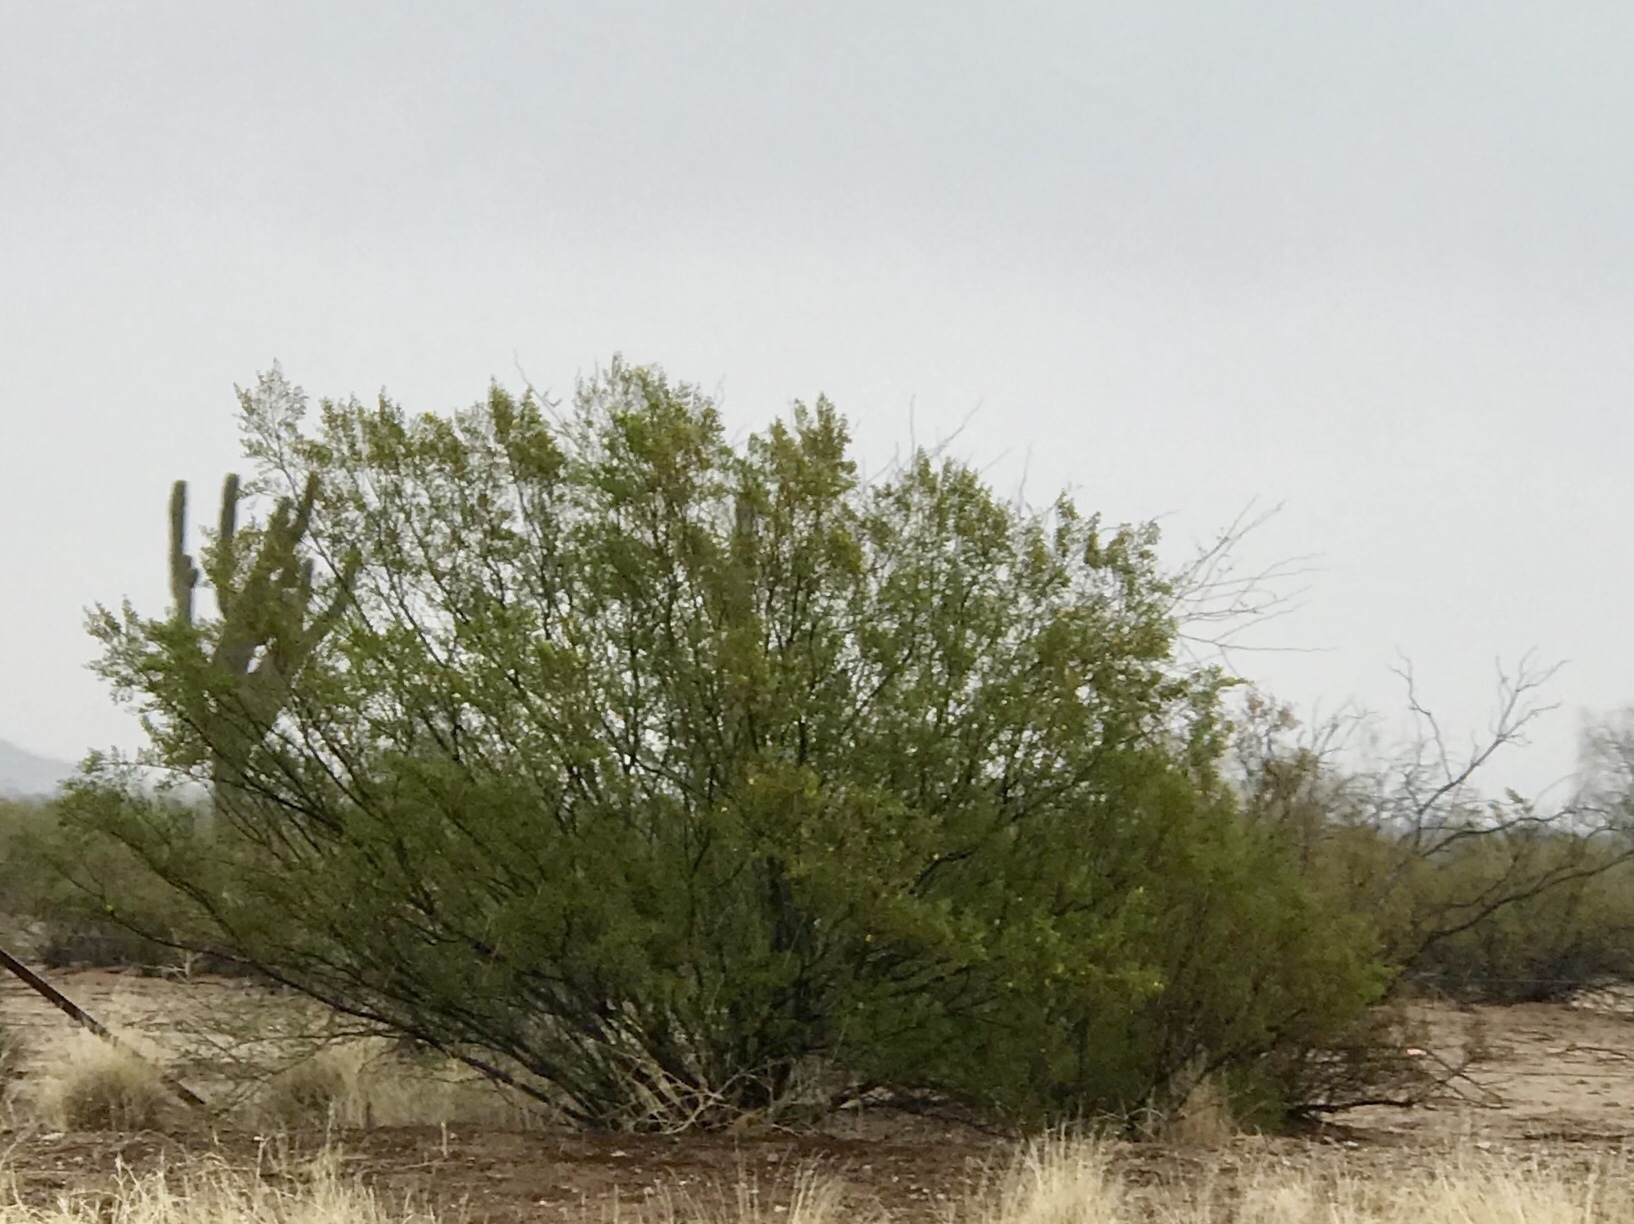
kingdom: Plantae
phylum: Tracheophyta
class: Magnoliopsida
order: Zygophyllales
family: Zygophyllaceae
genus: Larrea
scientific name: Larrea tridentata
